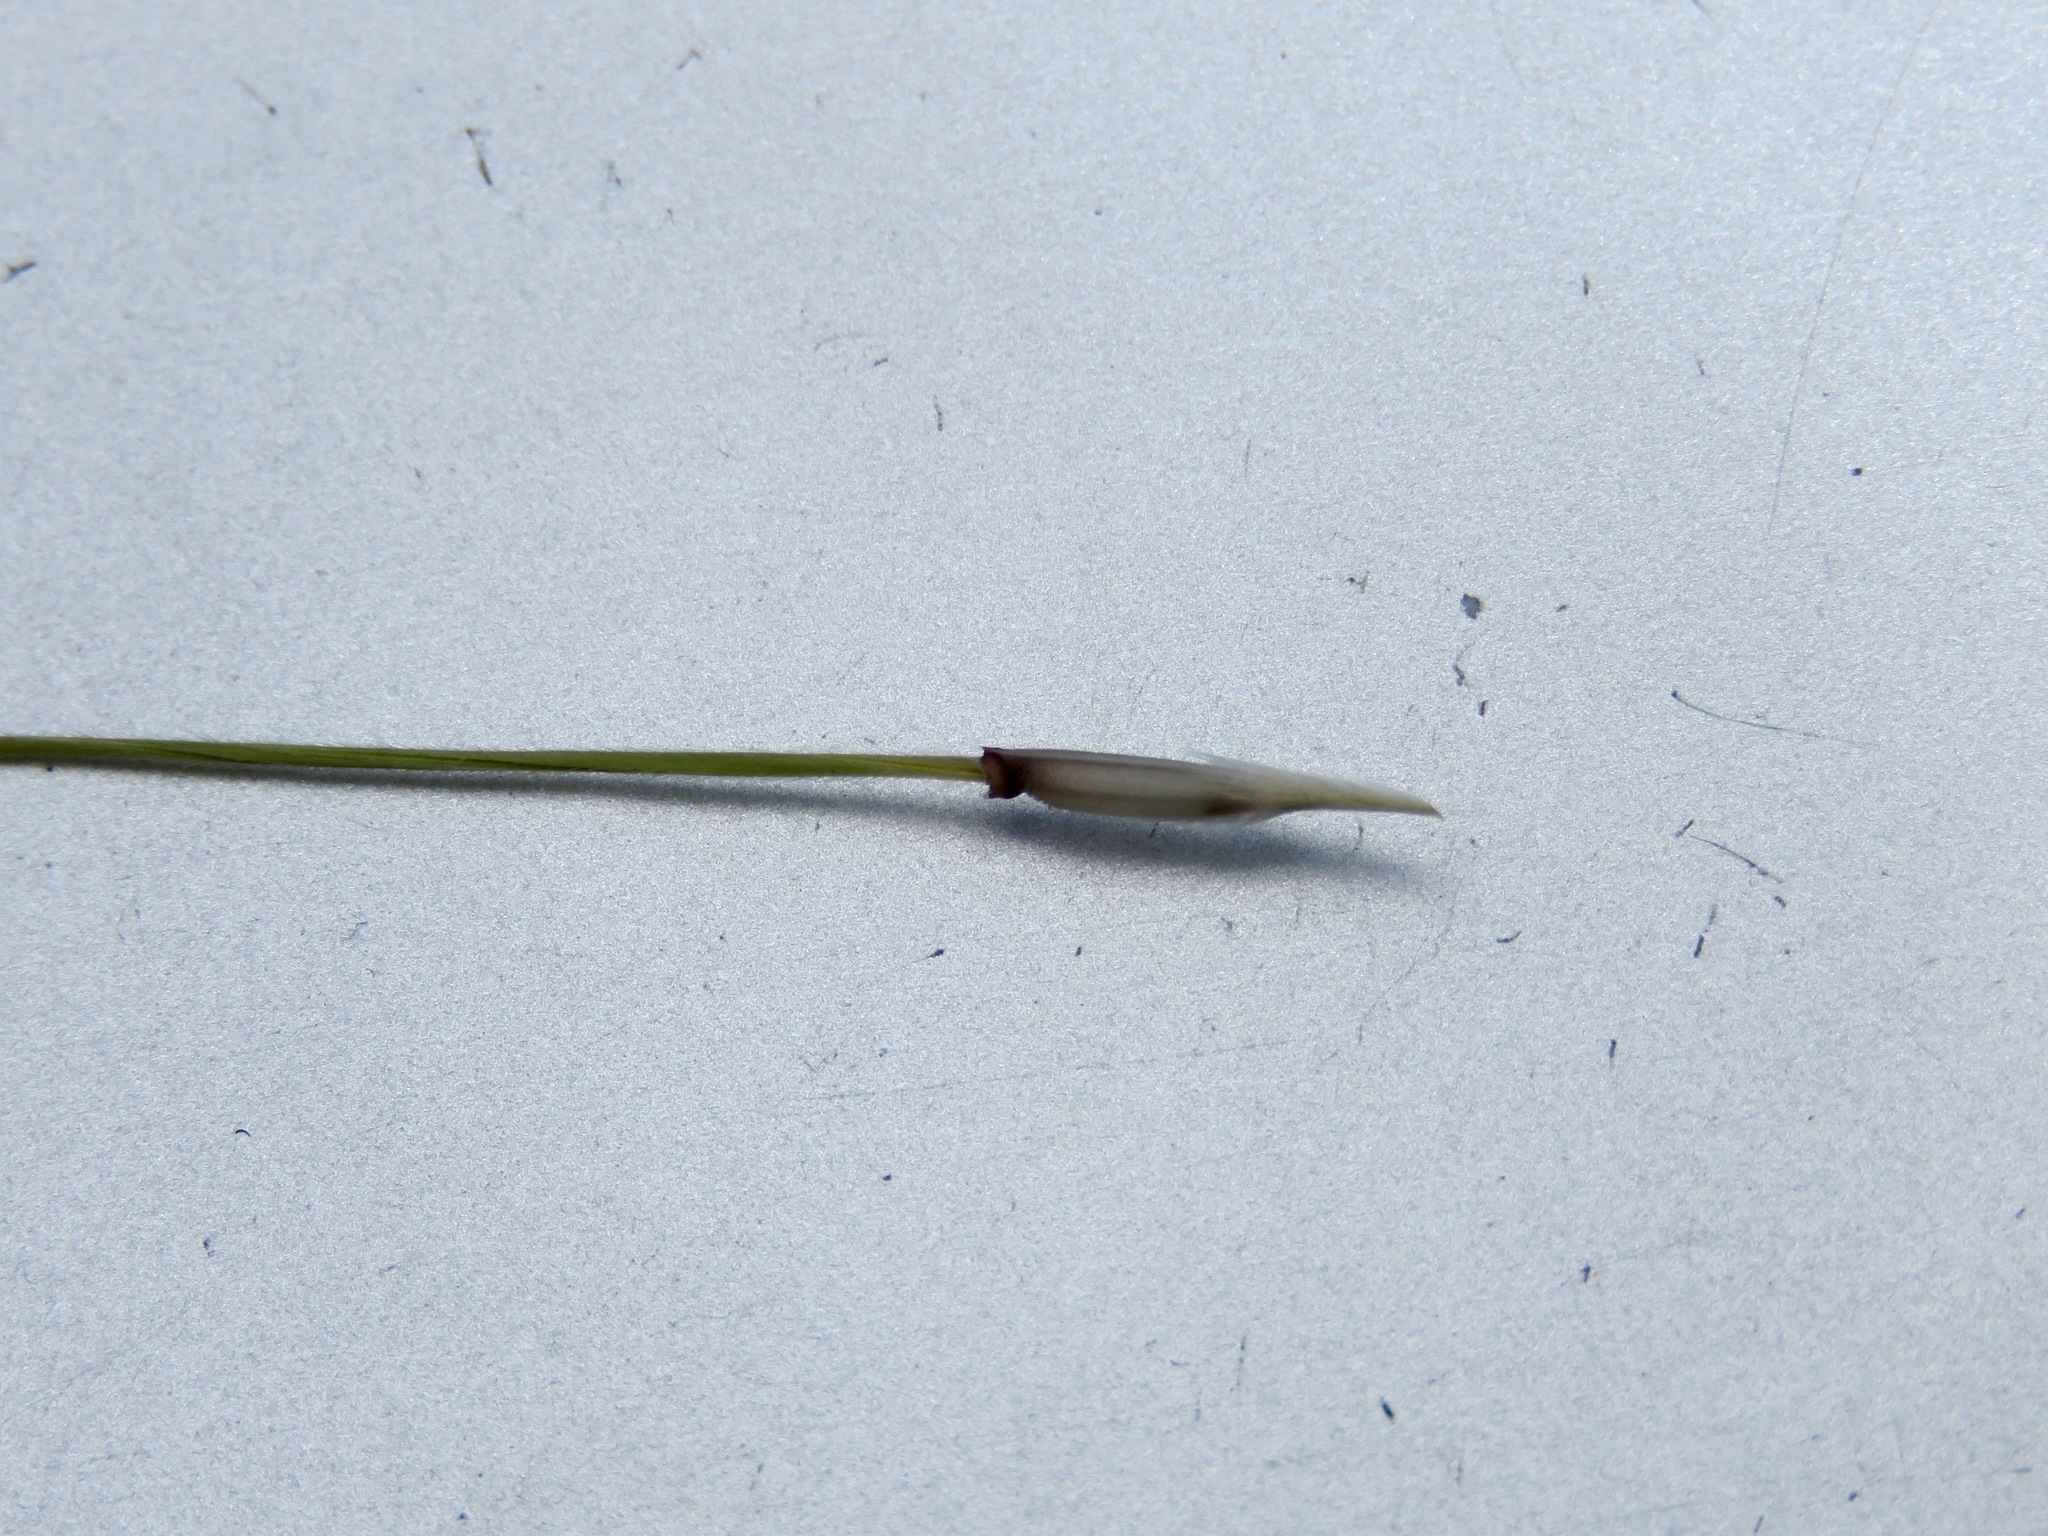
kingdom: Plantae
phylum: Tracheophyta
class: Liliopsida
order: Poales
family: Poaceae
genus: Nassella
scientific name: Nassella neesiana
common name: American needle-grass
